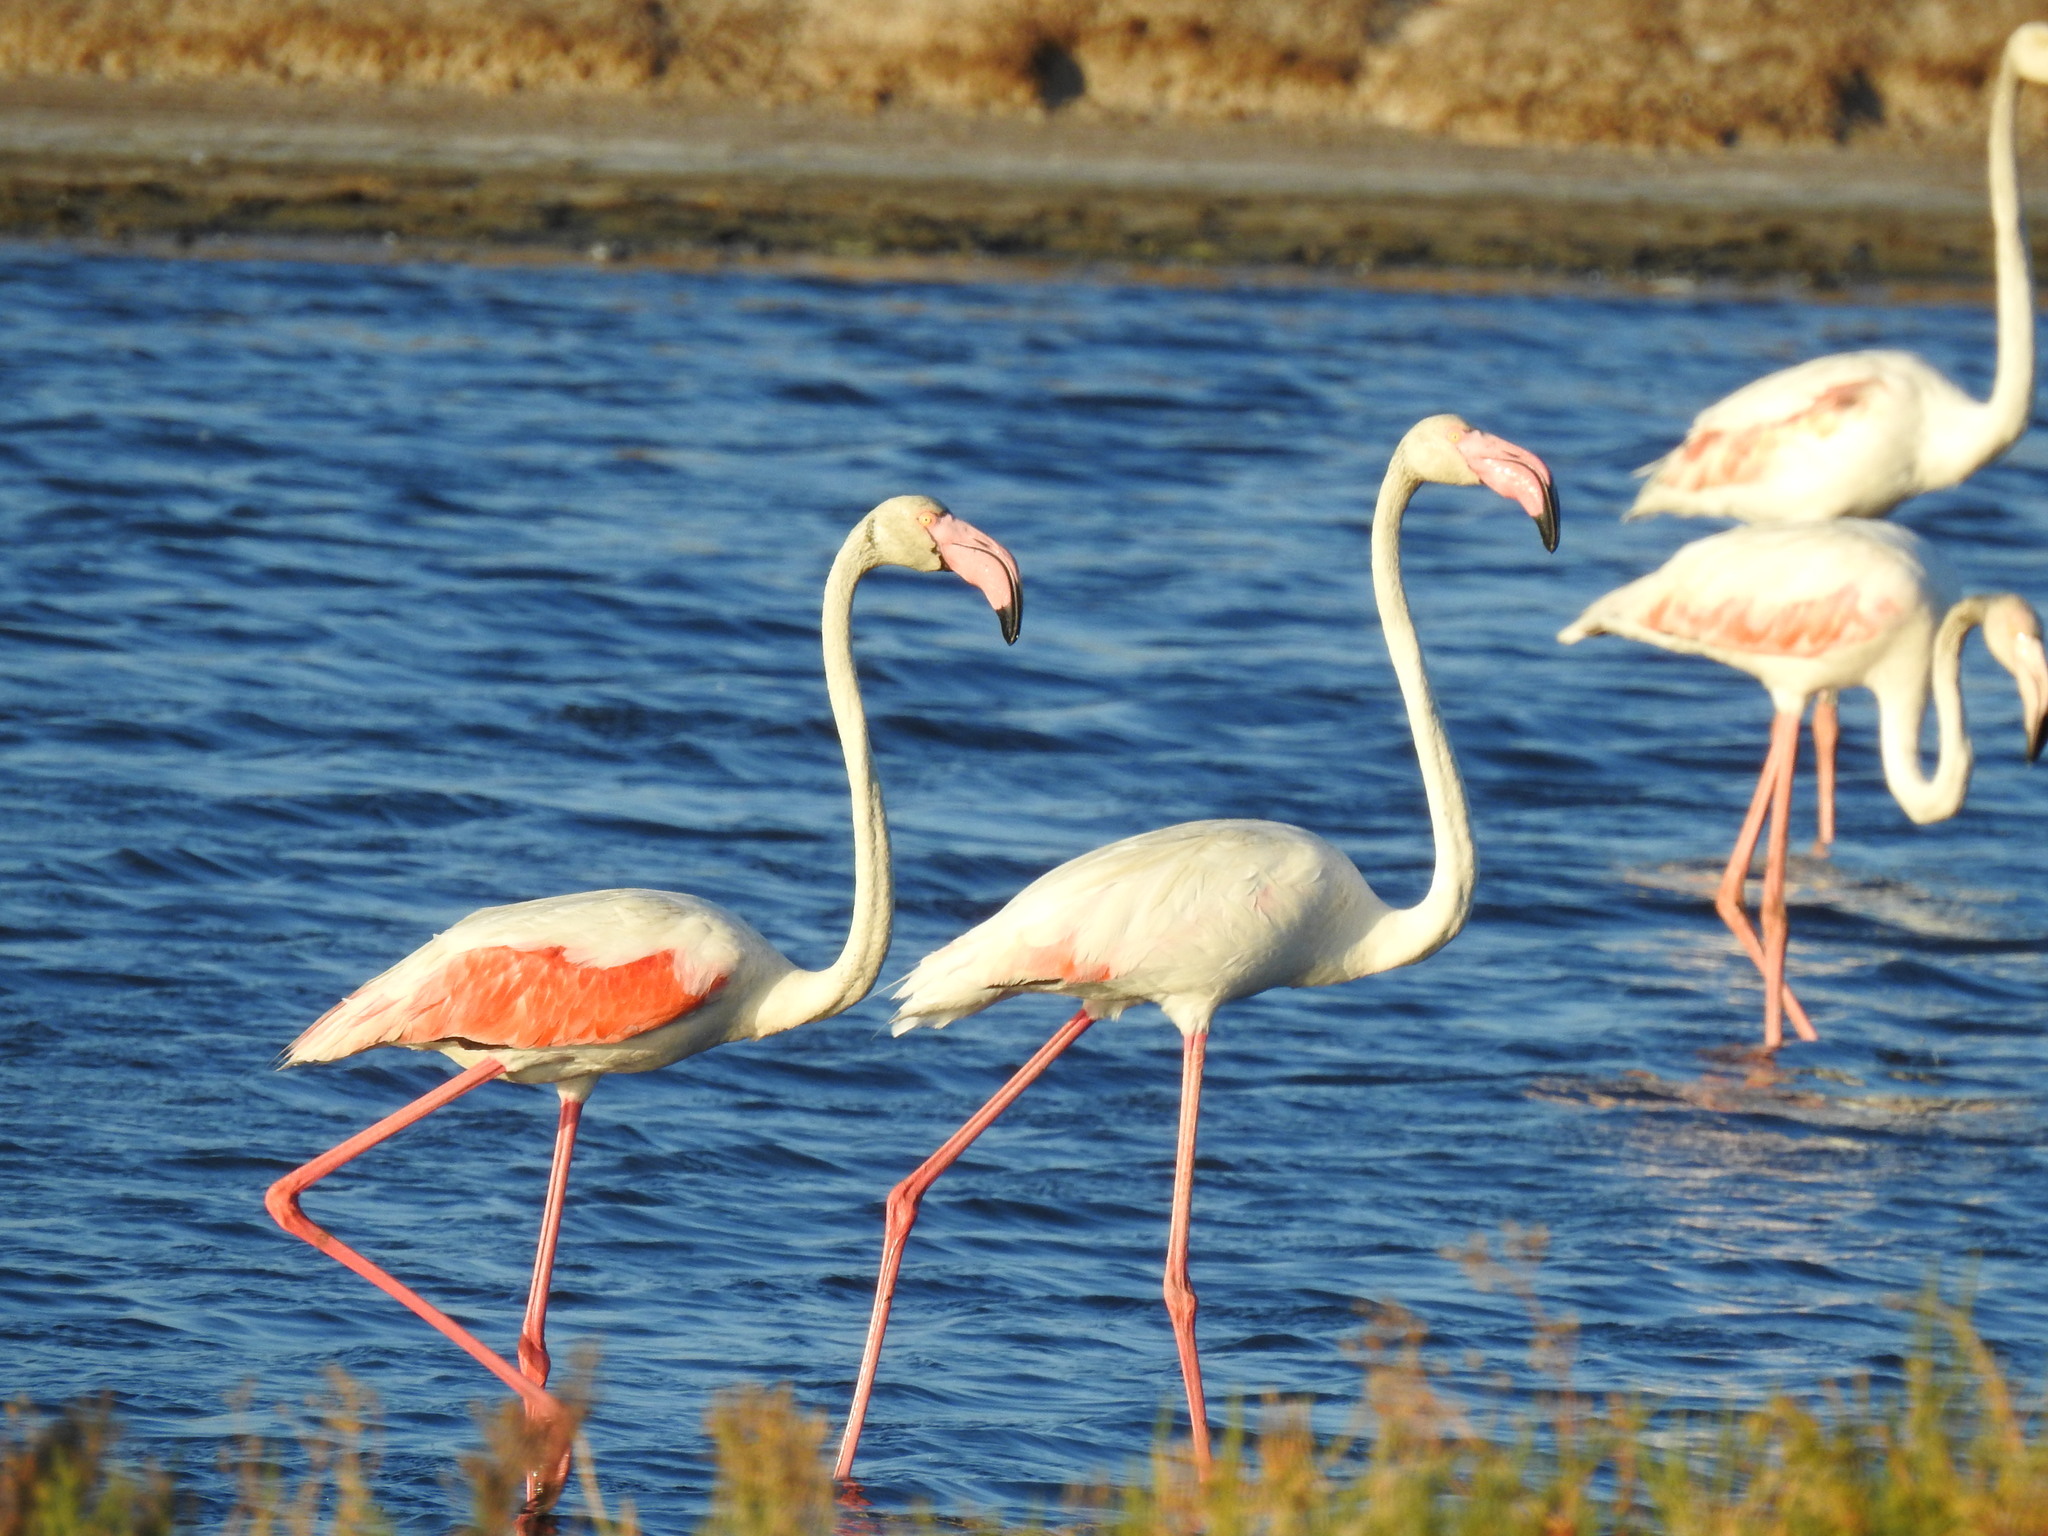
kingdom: Animalia
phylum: Chordata
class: Aves
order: Phoenicopteriformes
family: Phoenicopteridae
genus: Phoenicopterus
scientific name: Phoenicopterus roseus
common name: Greater flamingo
